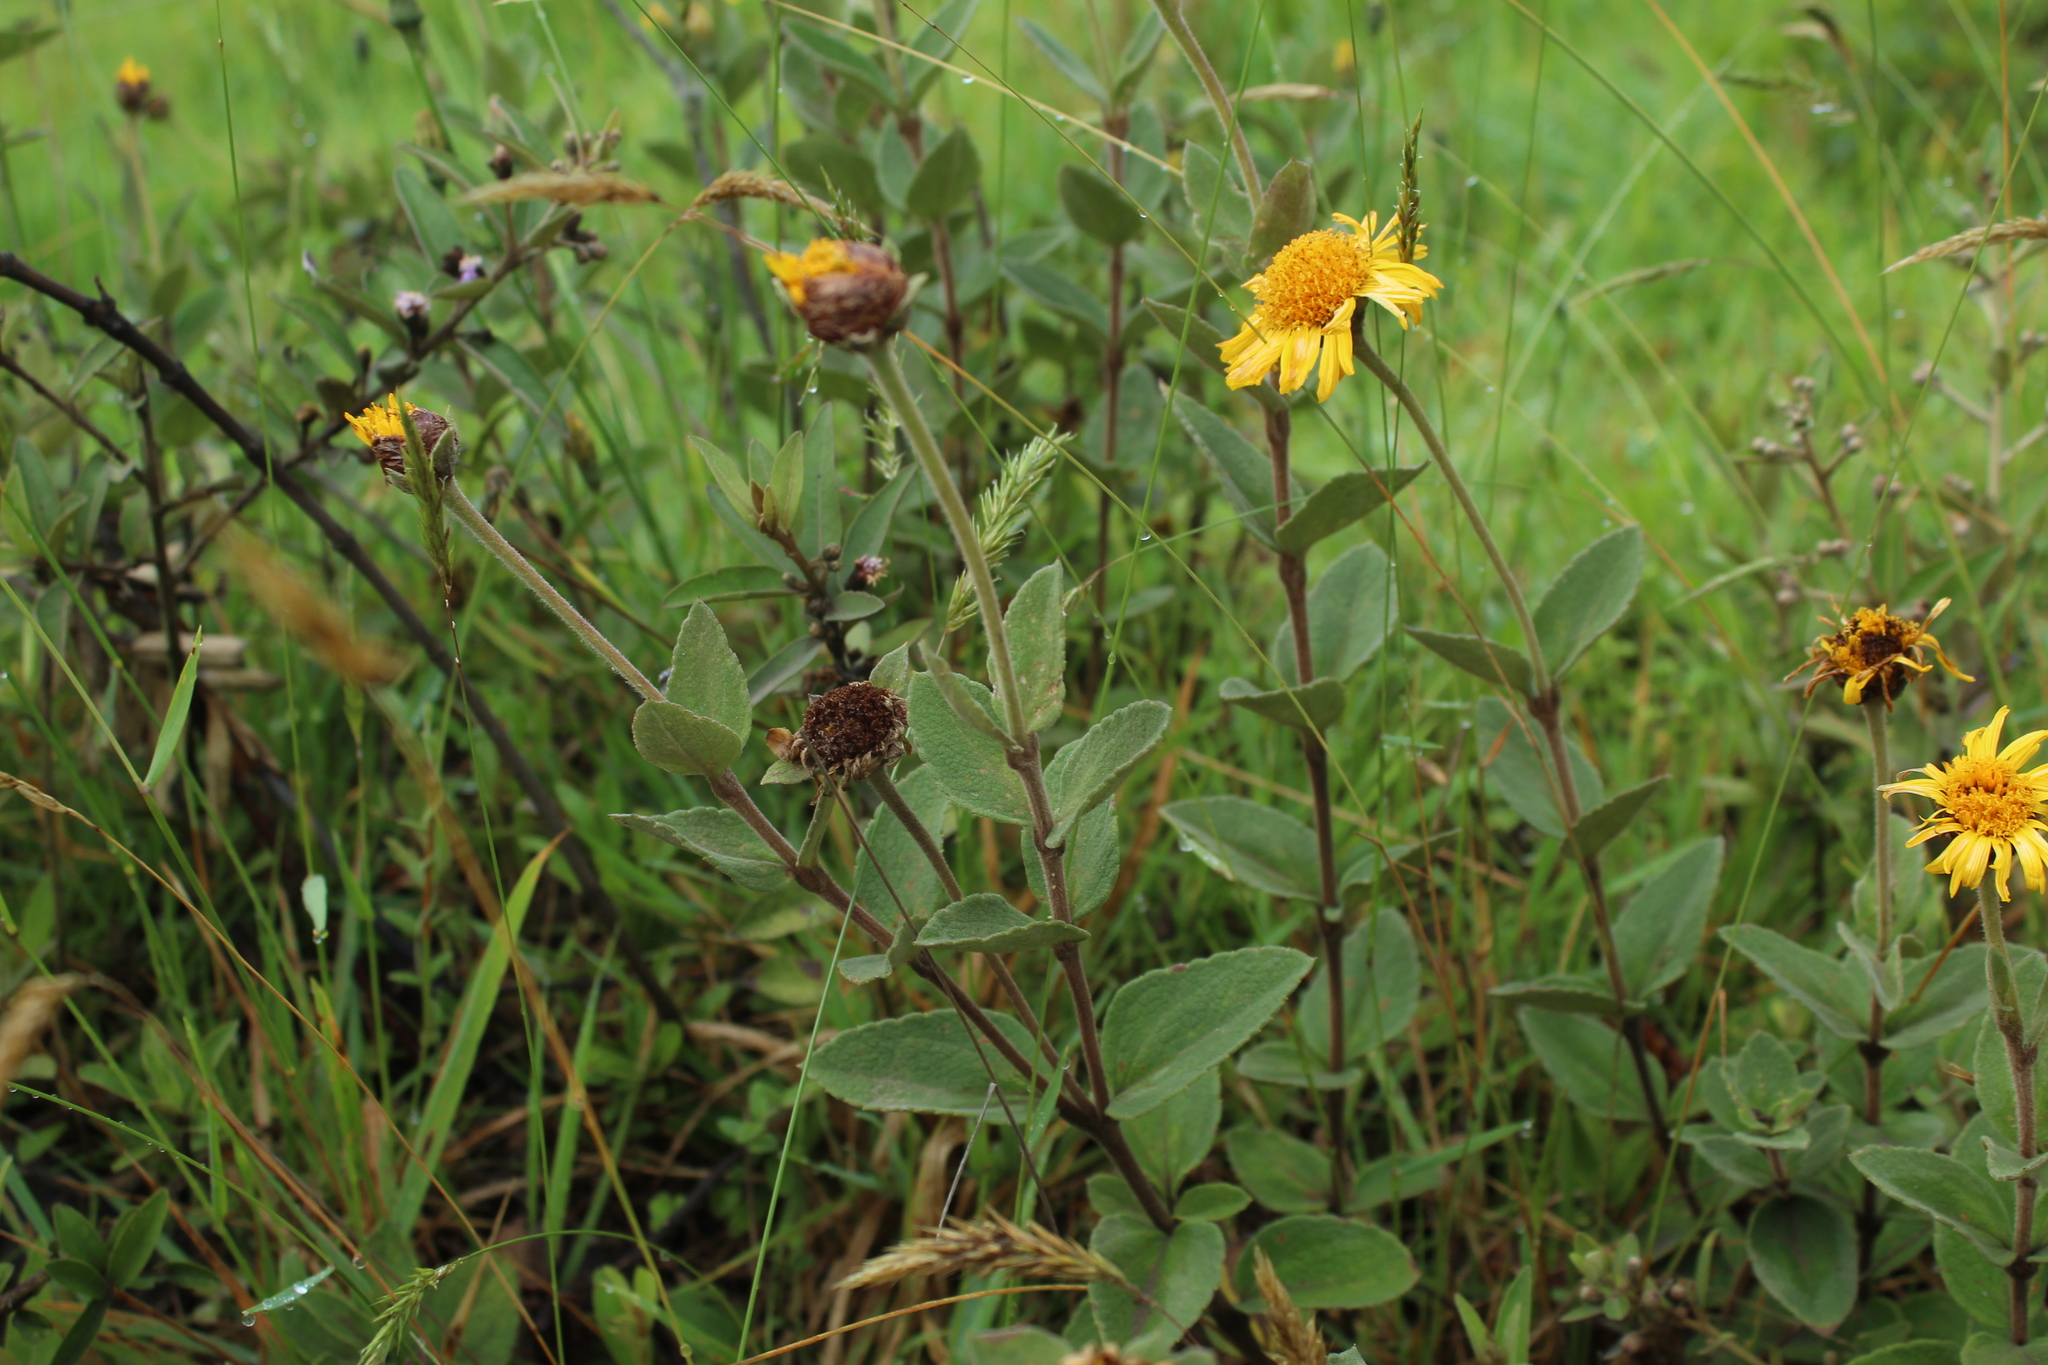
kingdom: Plantae
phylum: Tracheophyta
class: Magnoliopsida
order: Asterales
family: Asteraceae
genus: Calea
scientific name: Calea peruviana
